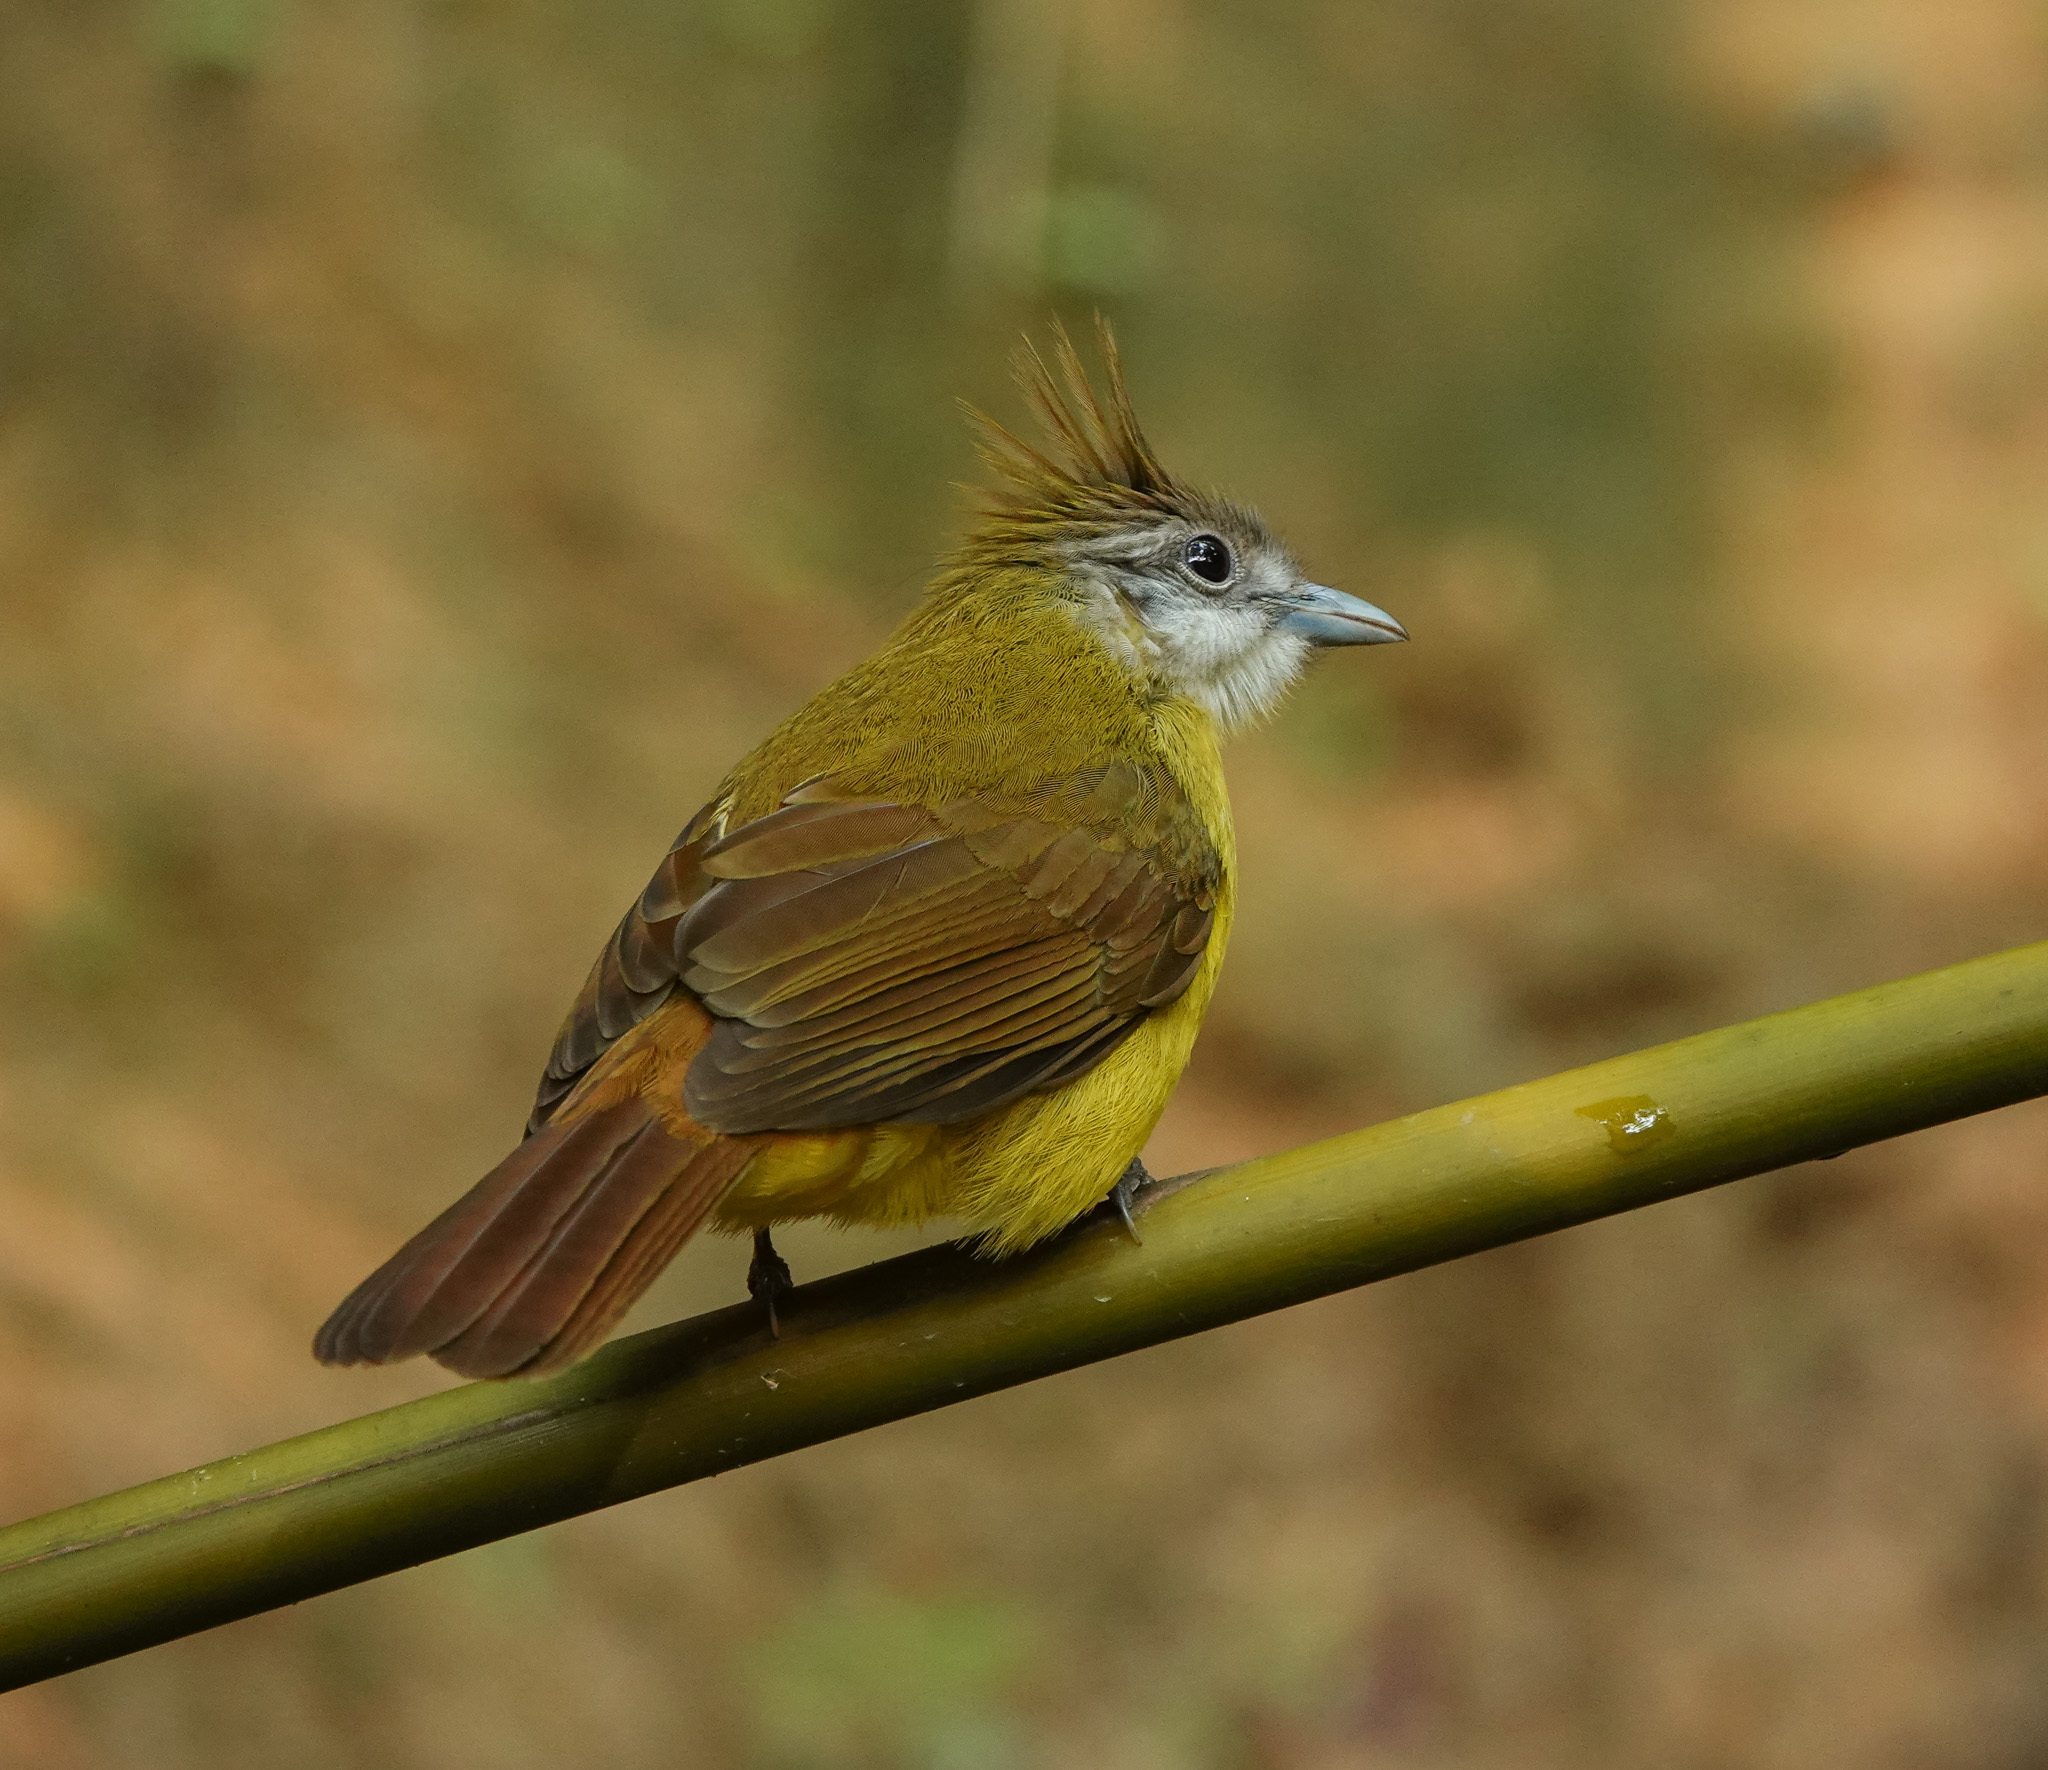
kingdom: Animalia
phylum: Chordata
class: Aves
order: Passeriformes
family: Pycnonotidae
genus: Alophoixus
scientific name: Alophoixus flaveolus
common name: White-throated bulbul
